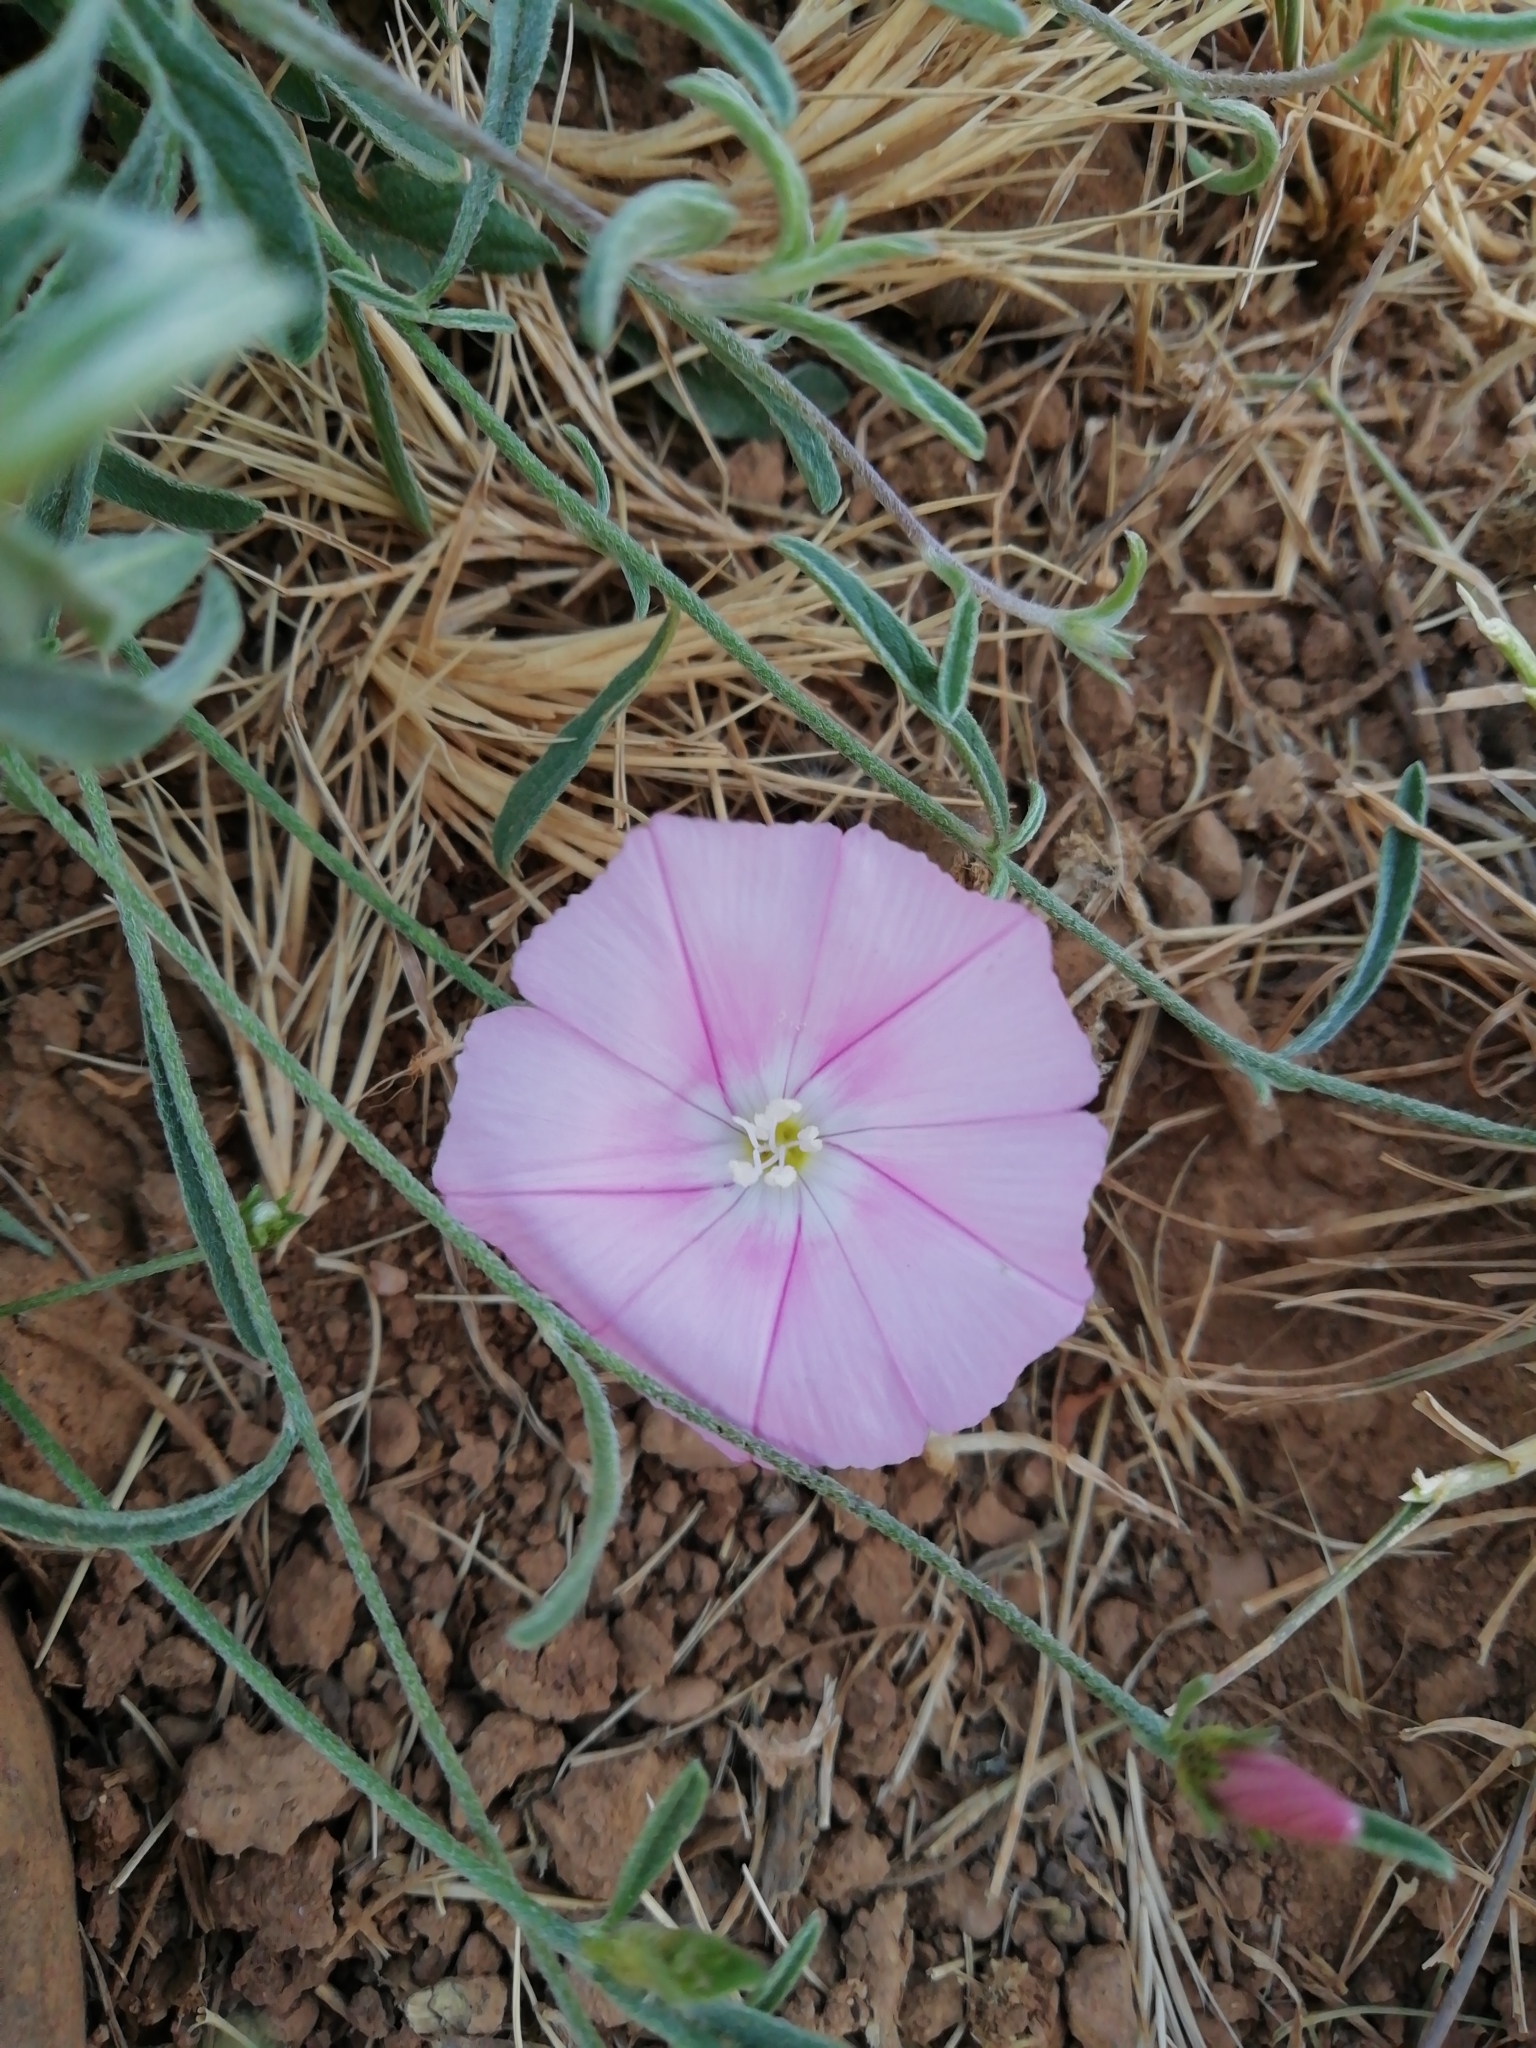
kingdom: Plantae
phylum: Tracheophyta
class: Magnoliopsida
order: Solanales
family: Convolvulaceae
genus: Convolvulus
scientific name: Convolvulus cantabrica
